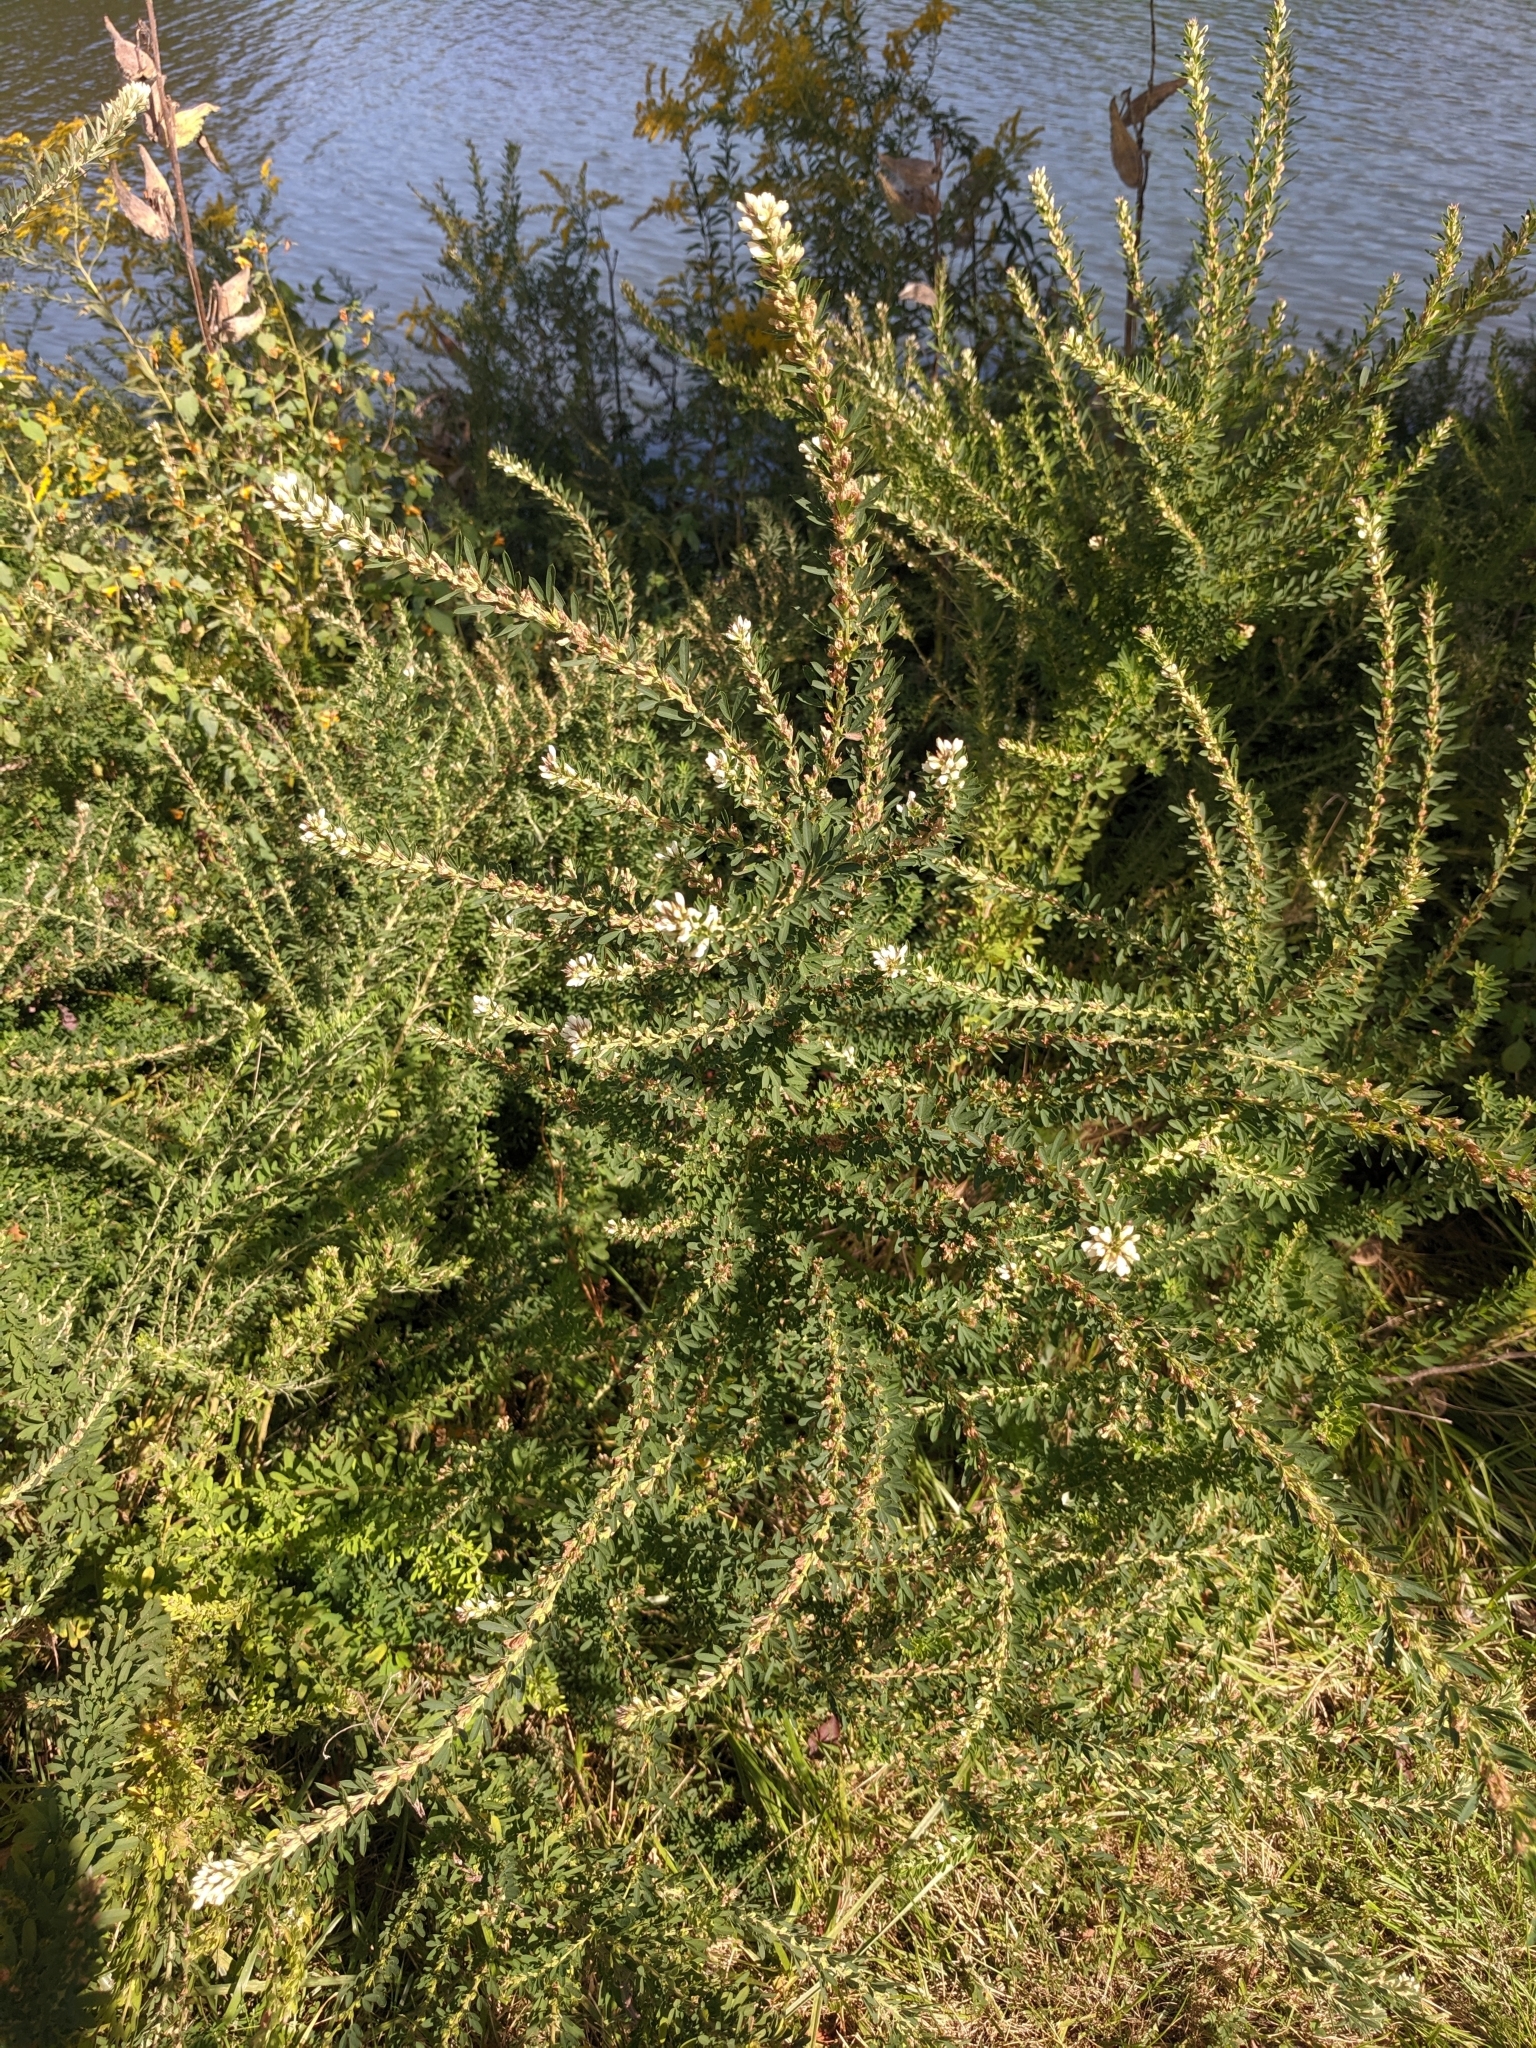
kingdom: Plantae
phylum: Tracheophyta
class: Magnoliopsida
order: Fabales
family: Fabaceae
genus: Lespedeza
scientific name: Lespedeza cuneata
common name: Chinese bush-clover
